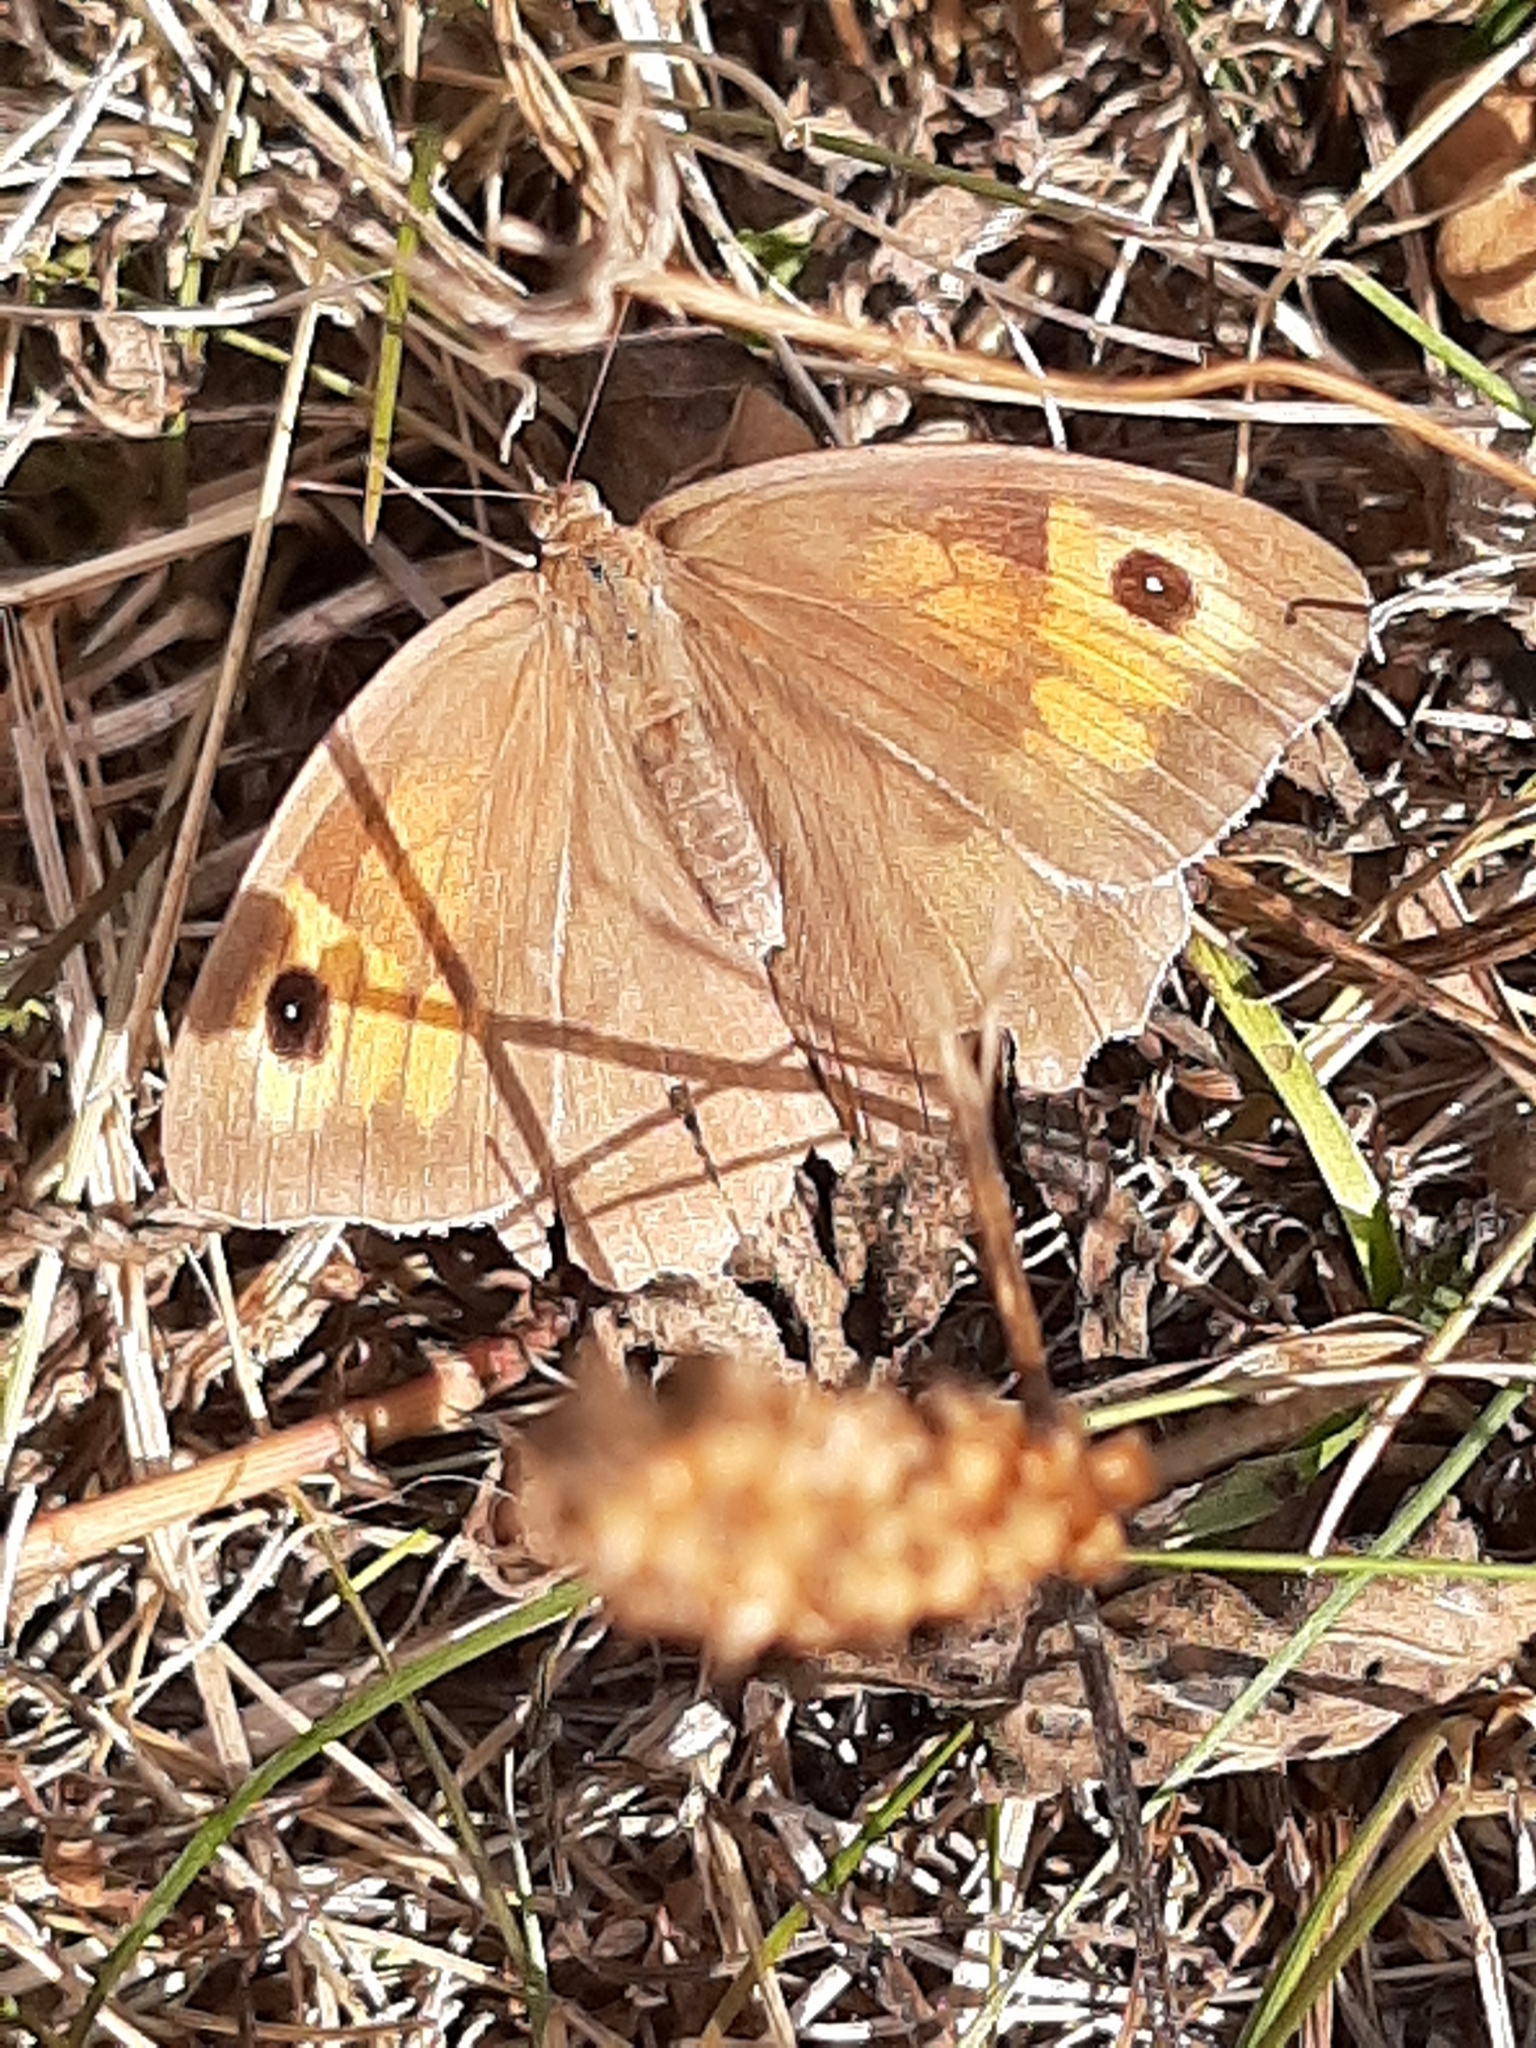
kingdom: Animalia
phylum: Arthropoda
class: Insecta
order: Lepidoptera
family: Nymphalidae
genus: Maniola
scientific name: Maniola jurtina
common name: Meadow brown
